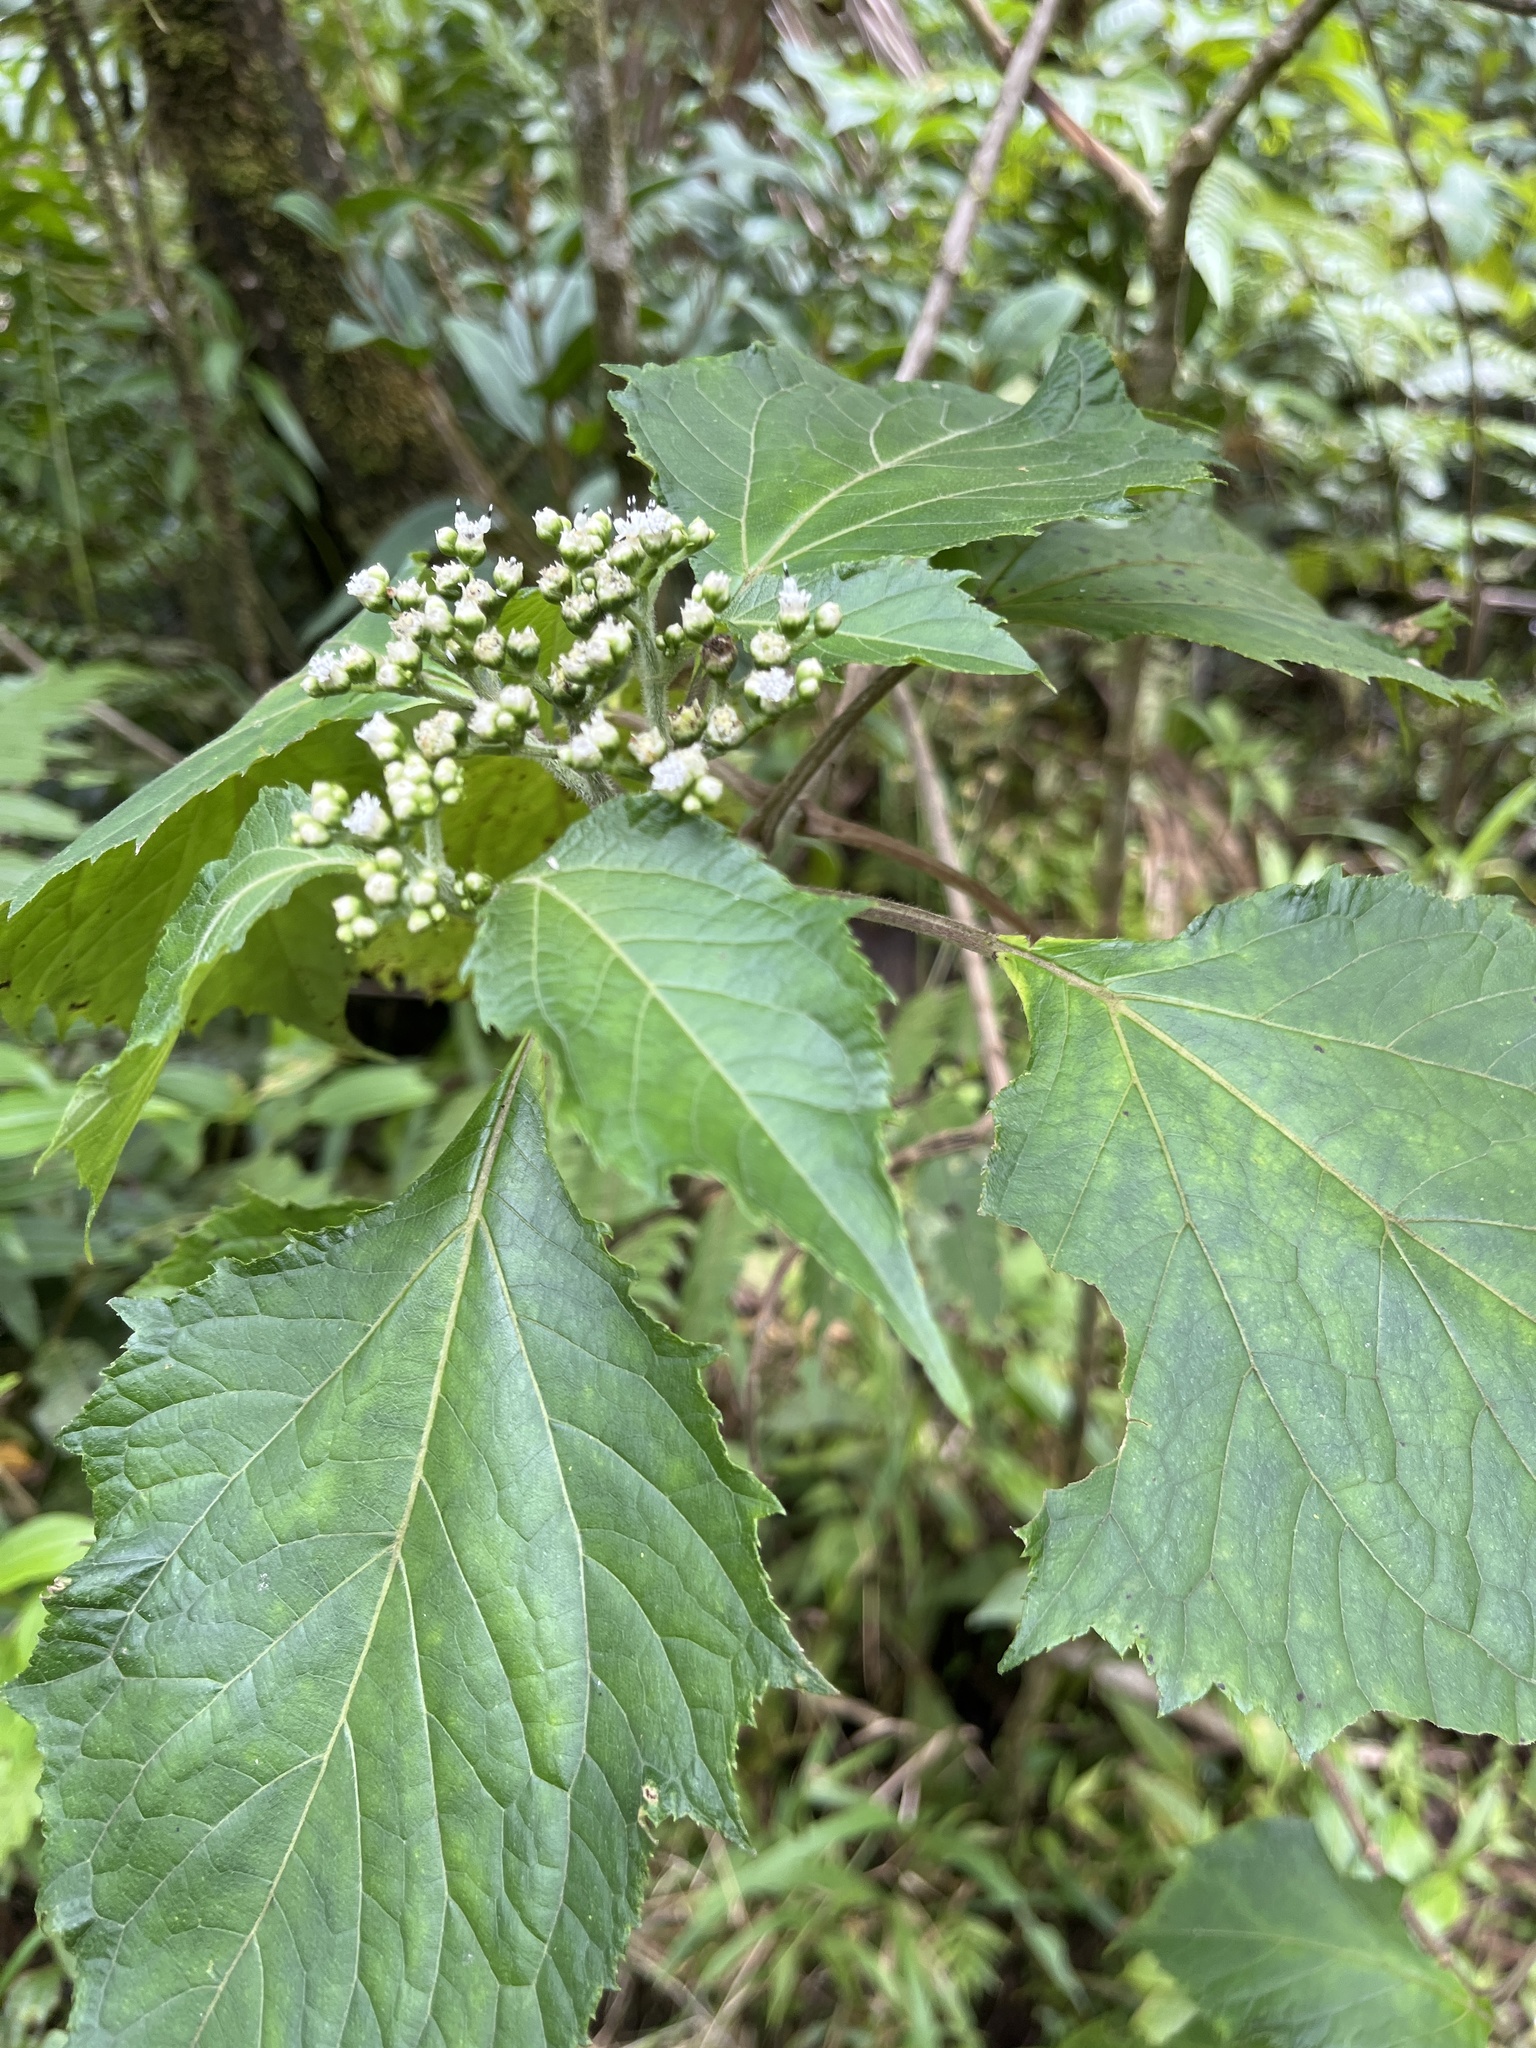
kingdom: Plantae
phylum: Tracheophyta
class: Magnoliopsida
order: Asterales
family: Asteraceae
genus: Clibadium
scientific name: Clibadium erosum
